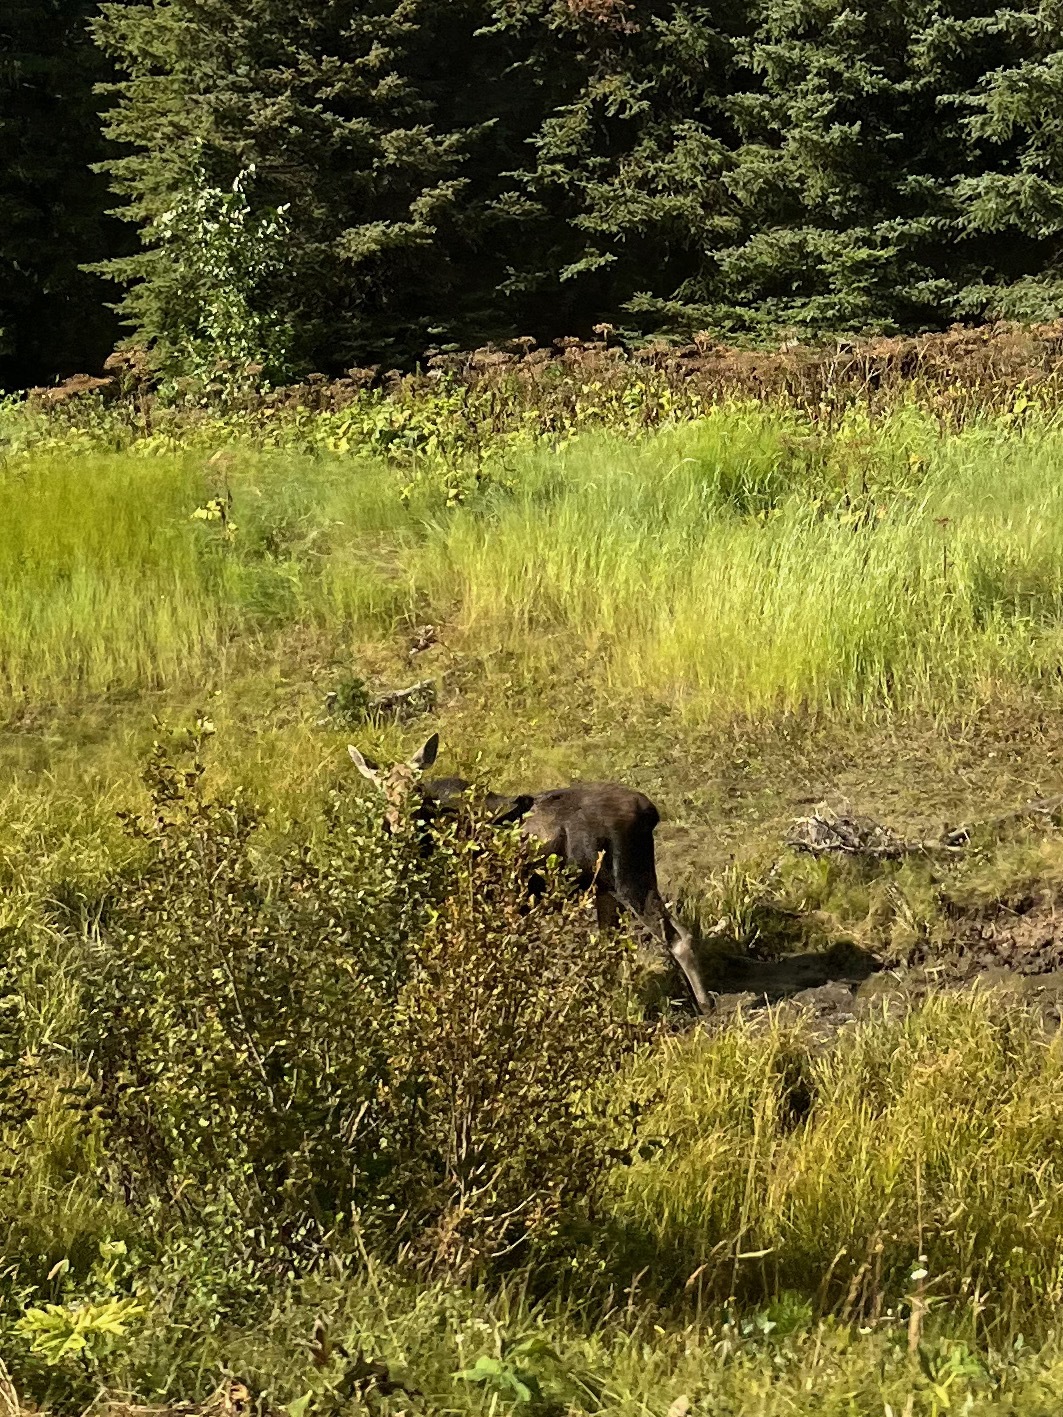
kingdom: Animalia
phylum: Chordata
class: Mammalia
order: Artiodactyla
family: Cervidae
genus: Alces
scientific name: Alces alces
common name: Moose
